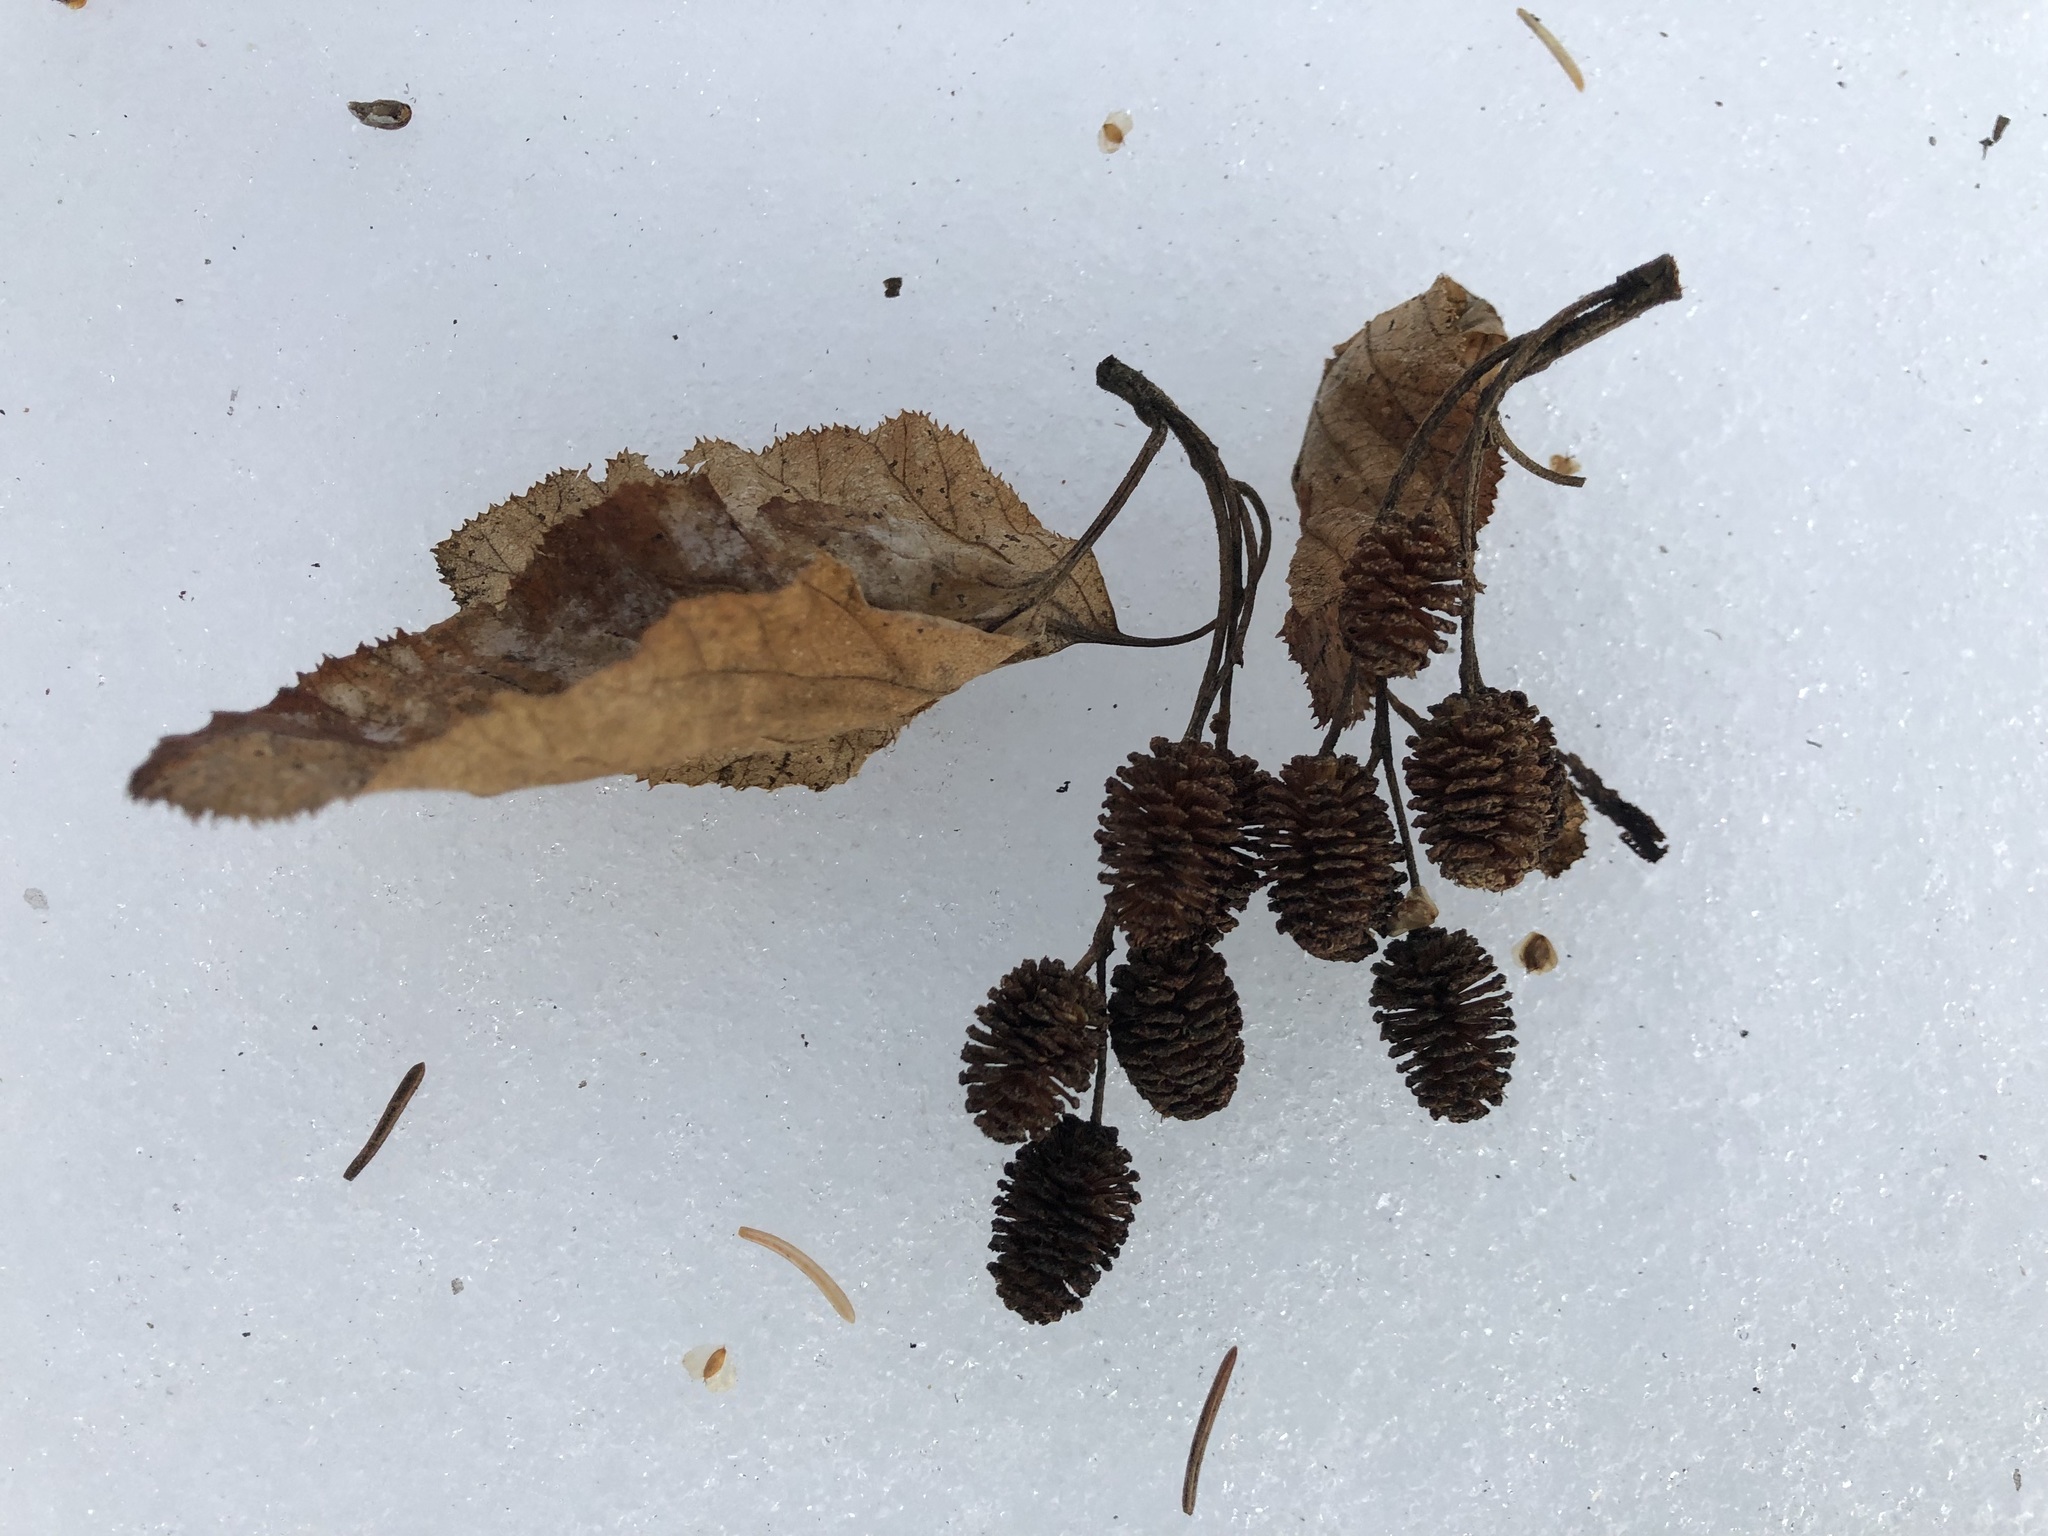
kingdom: Plantae
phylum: Tracheophyta
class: Magnoliopsida
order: Fagales
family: Betulaceae
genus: Alnus
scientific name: Alnus alnobetula
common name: Green alder
